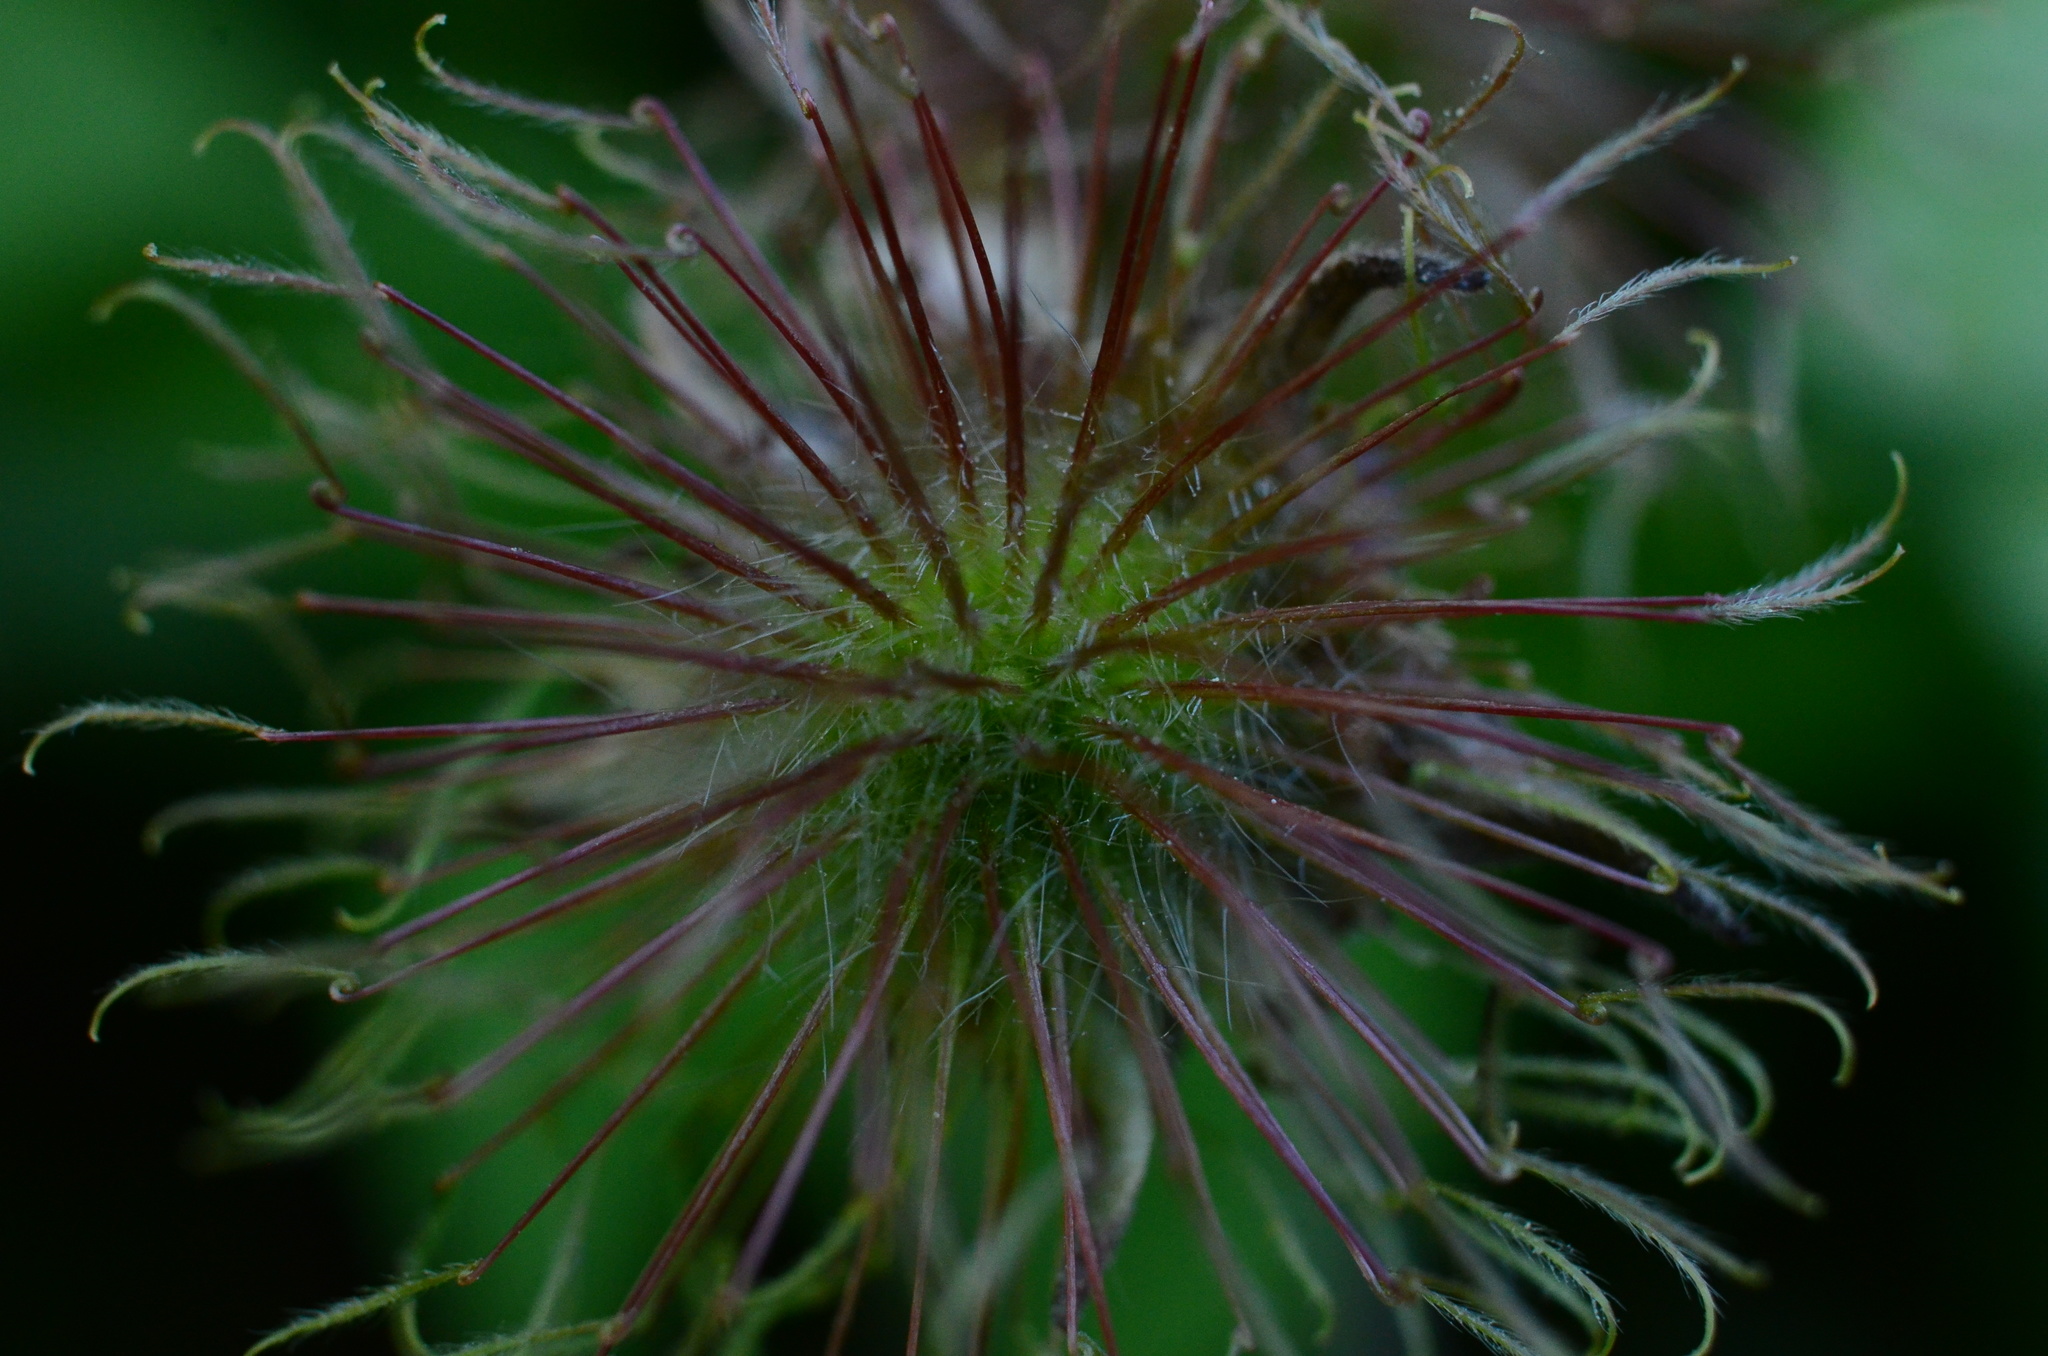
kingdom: Plantae
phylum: Tracheophyta
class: Magnoliopsida
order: Rosales
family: Rosaceae
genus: Geum
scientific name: Geum rivale
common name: Water avens
